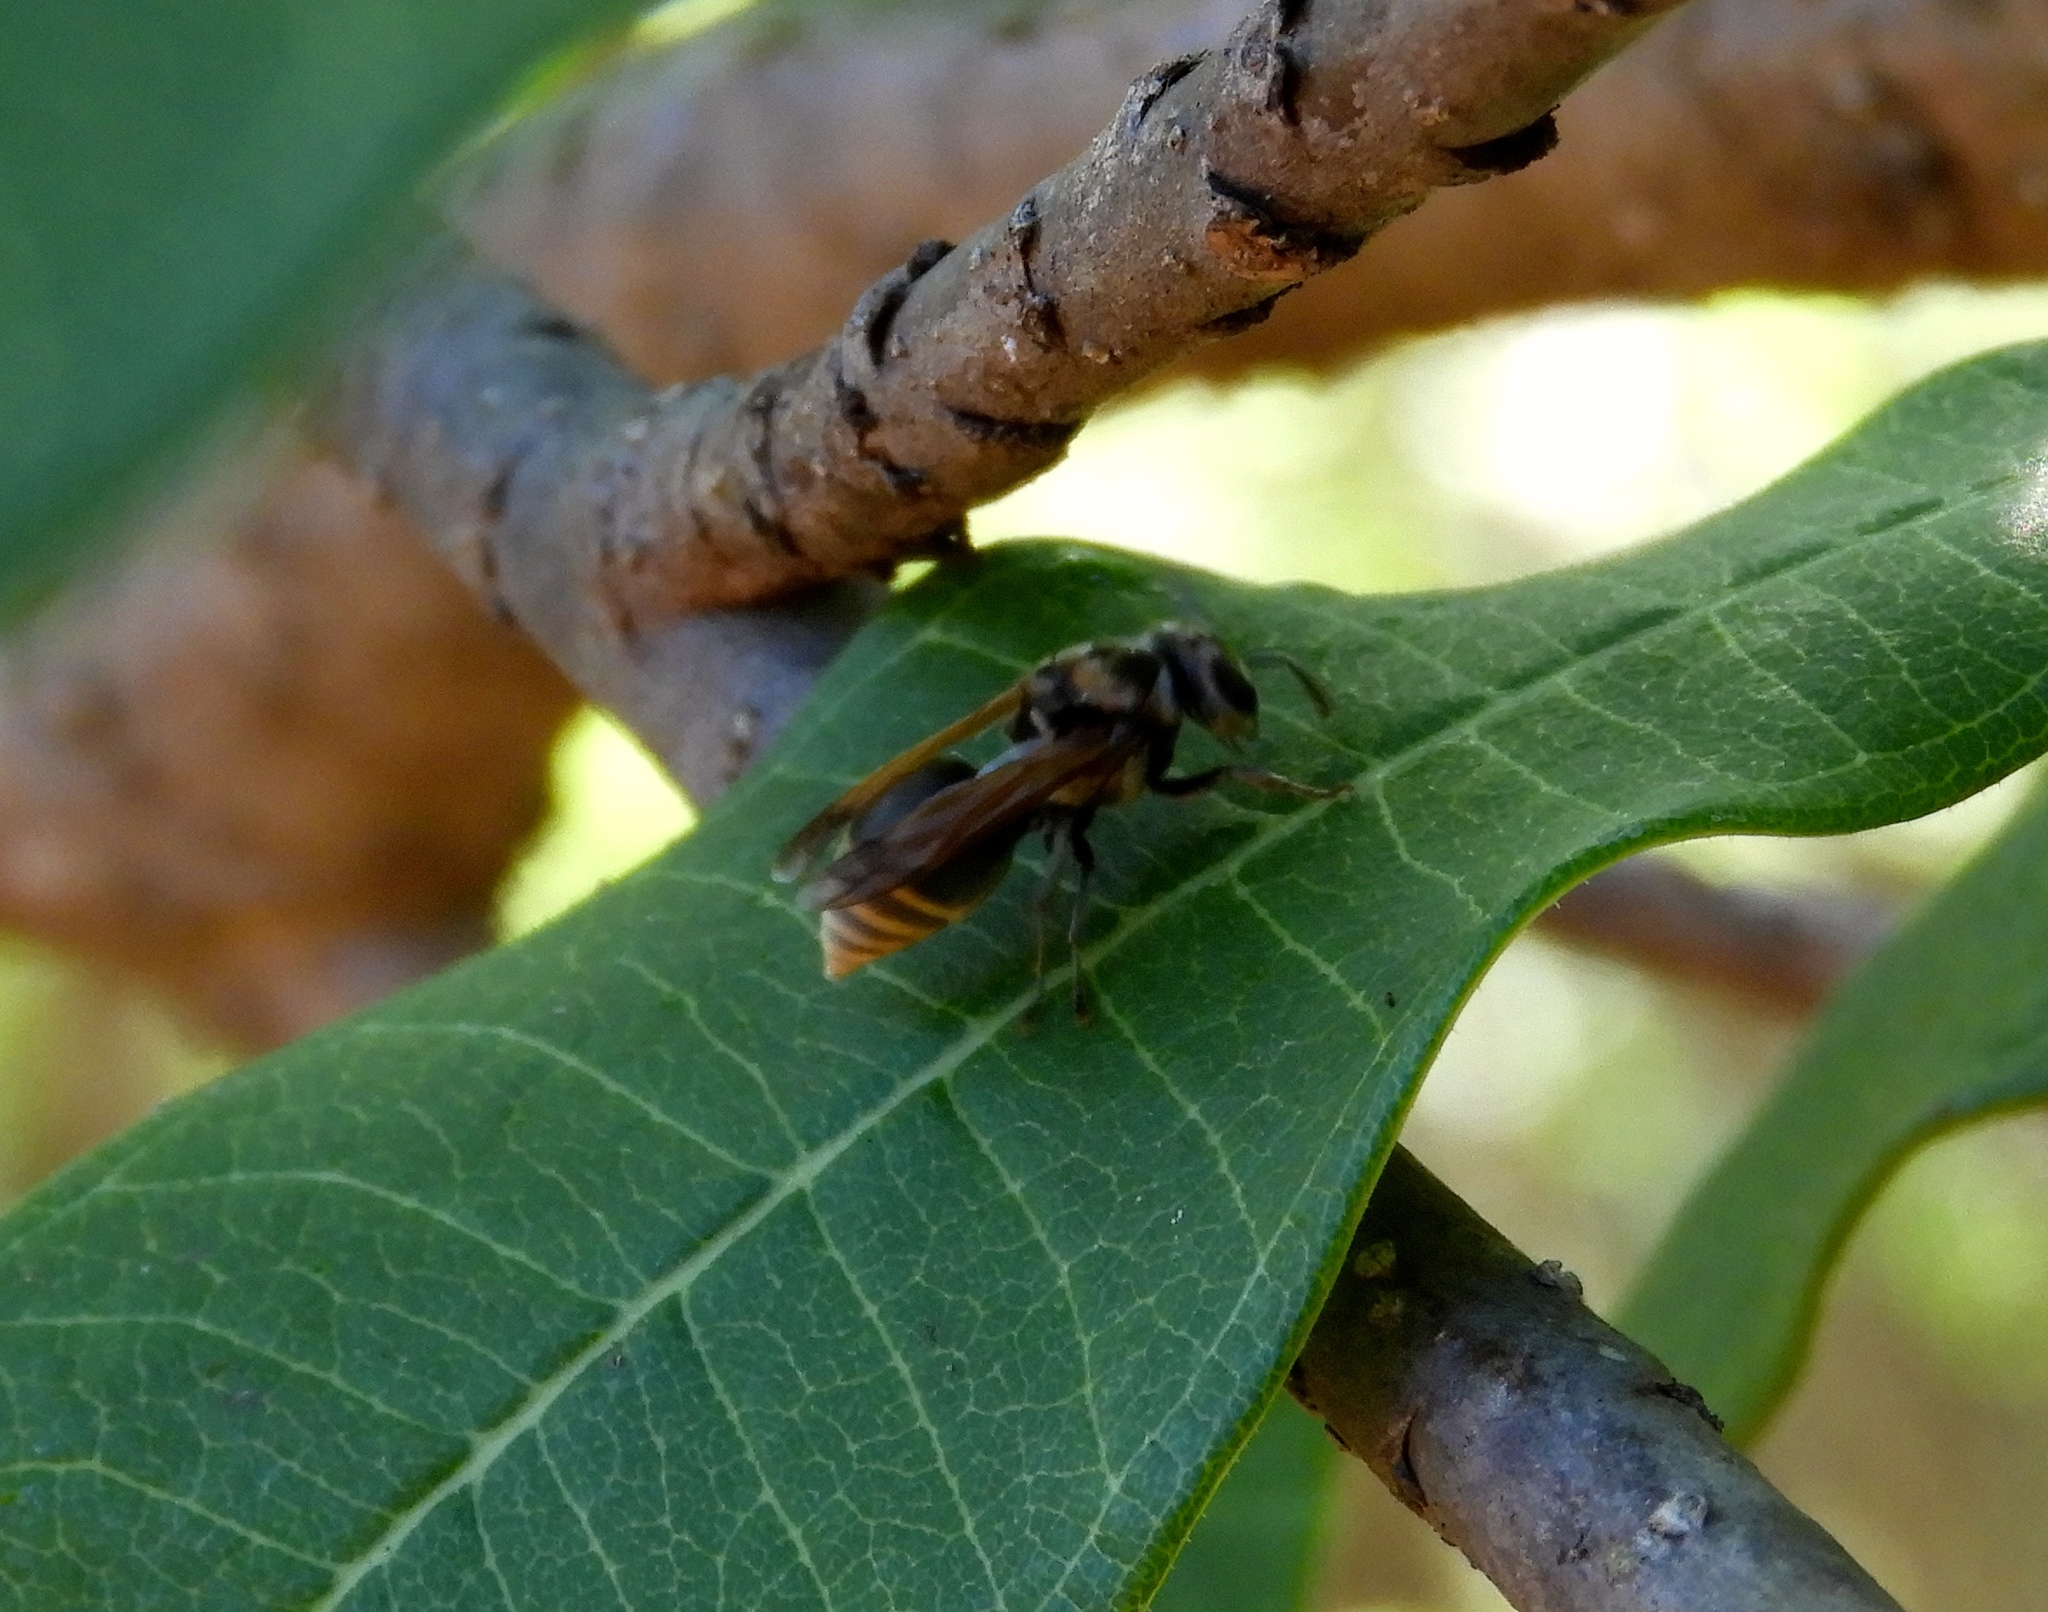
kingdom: Animalia
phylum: Arthropoda
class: Insecta
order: Hymenoptera
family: Vespidae
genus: Brachygastra
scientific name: Brachygastra mellifica
